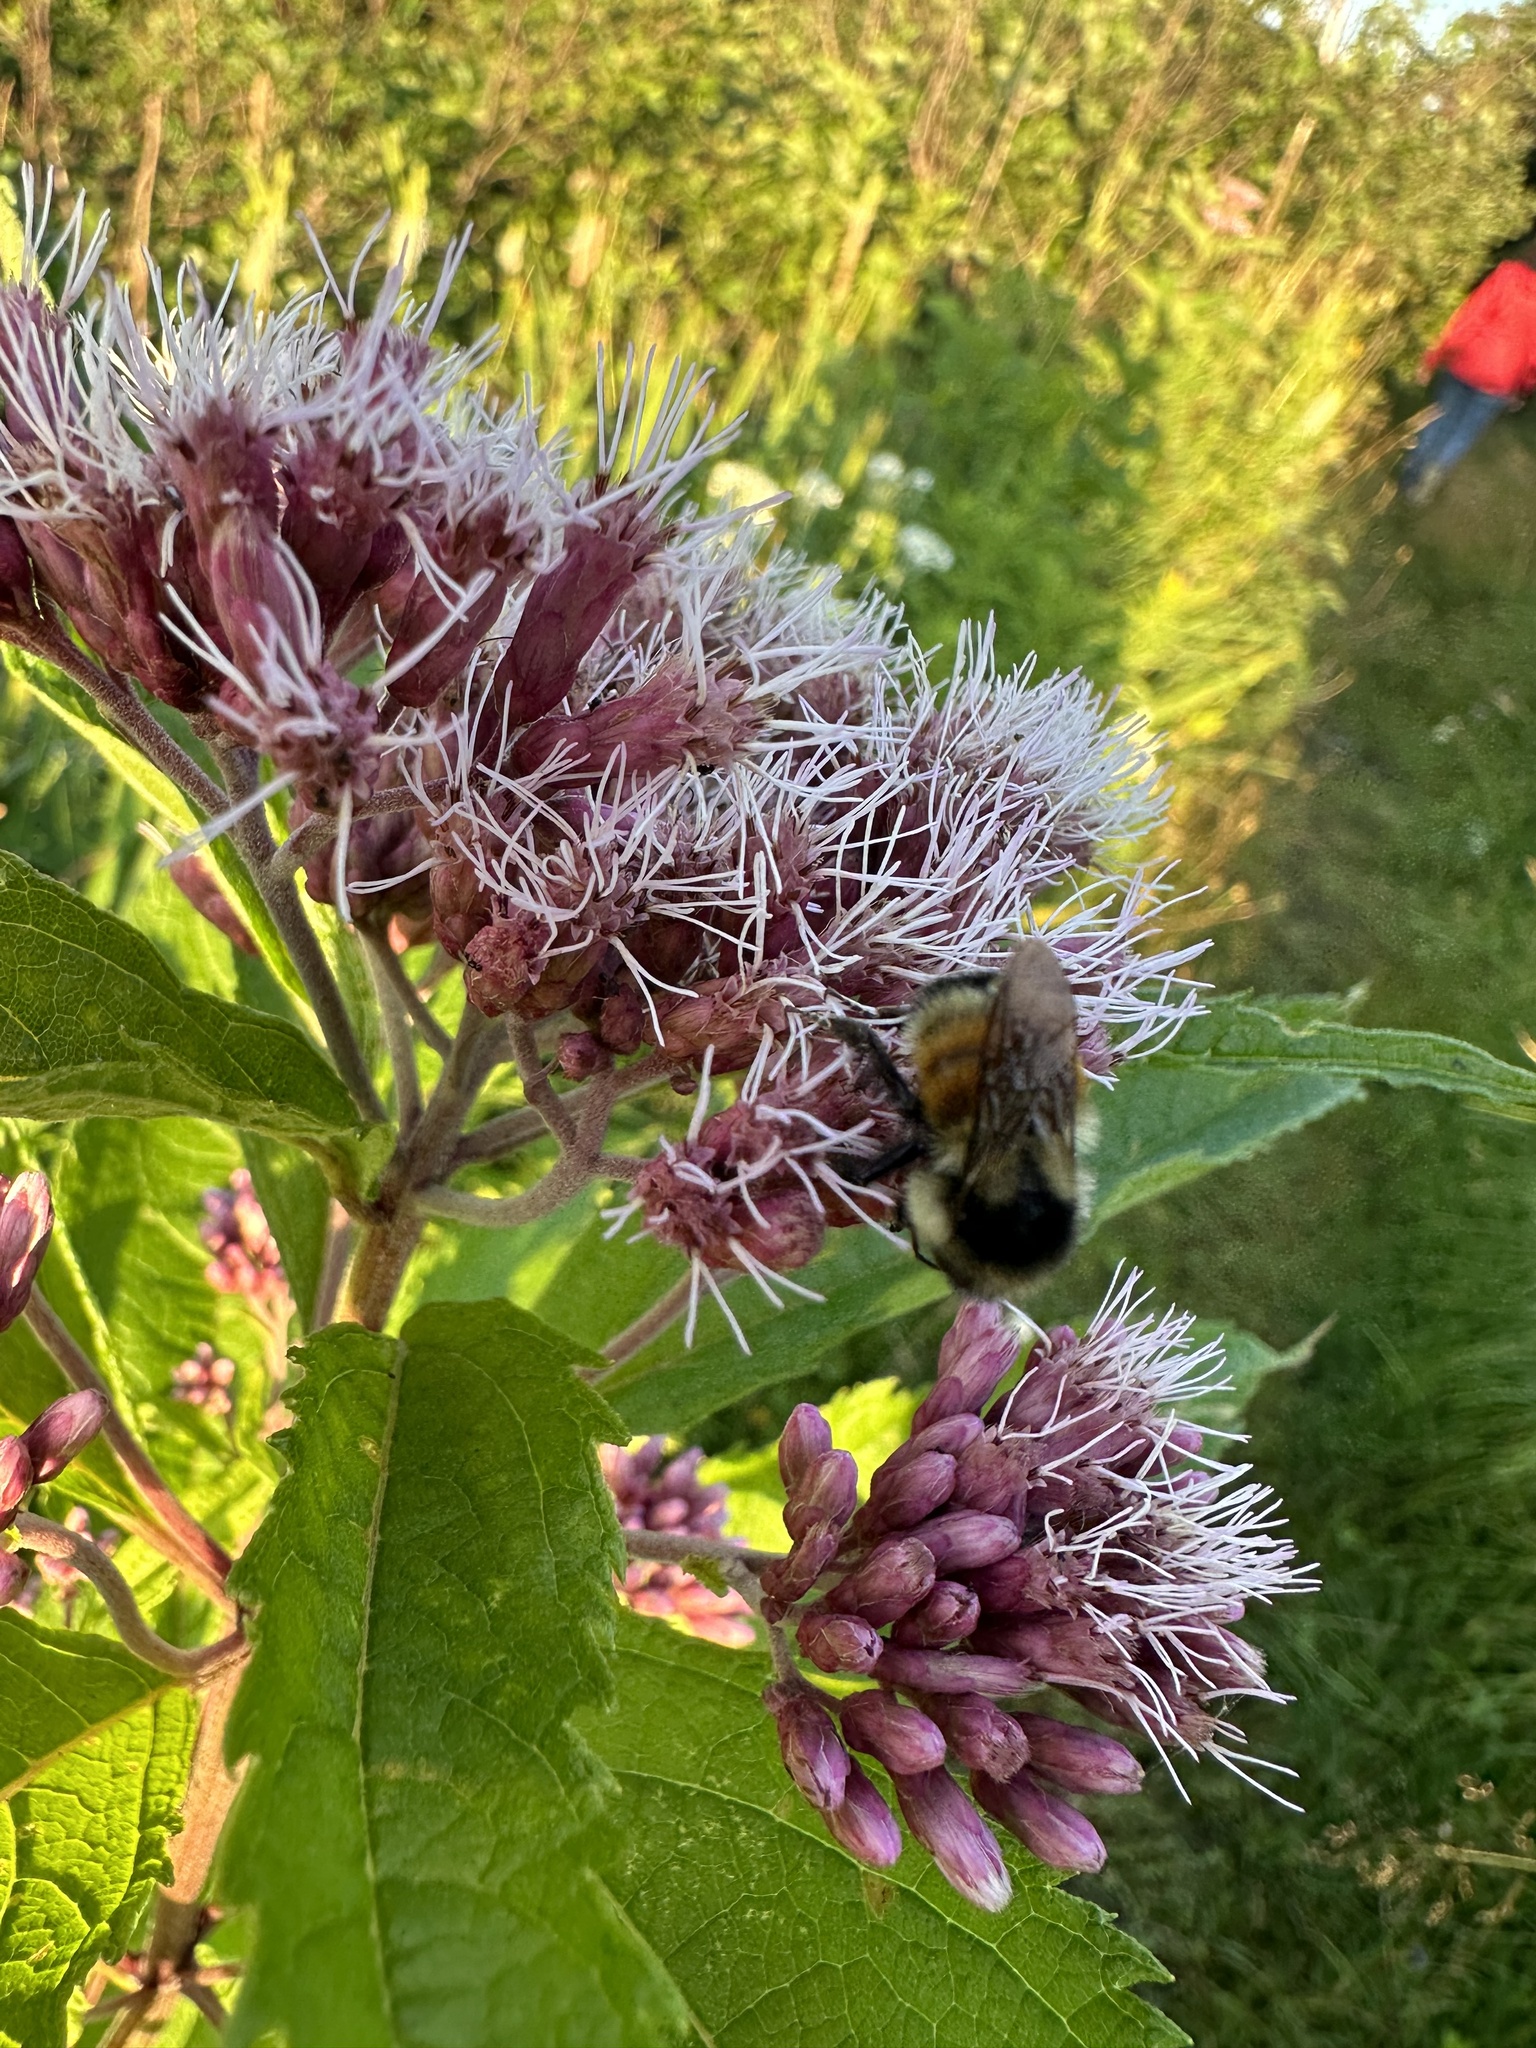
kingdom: Animalia
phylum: Arthropoda
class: Insecta
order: Hymenoptera
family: Apidae
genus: Bombus
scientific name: Bombus ternarius
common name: Tri-colored bumble bee
